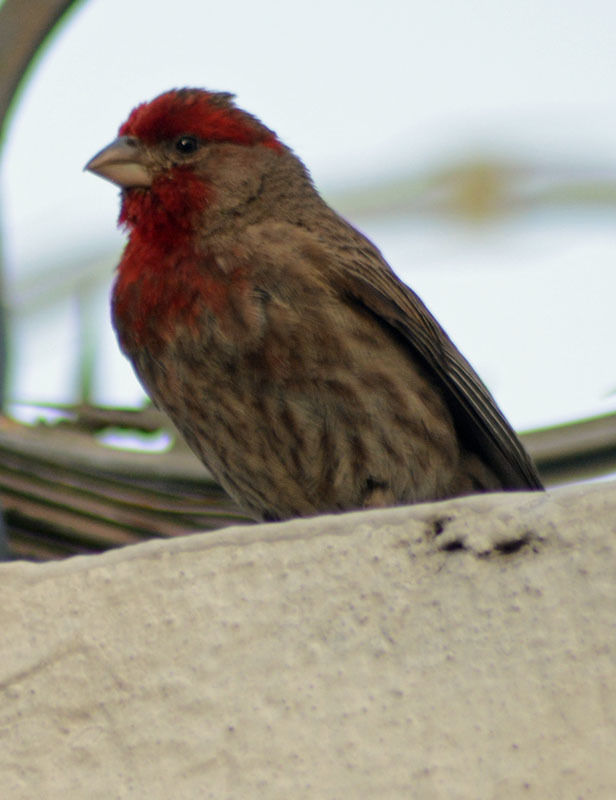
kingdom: Animalia
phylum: Chordata
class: Aves
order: Passeriformes
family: Fringillidae
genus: Haemorhous
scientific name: Haemorhous mexicanus
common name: House finch
